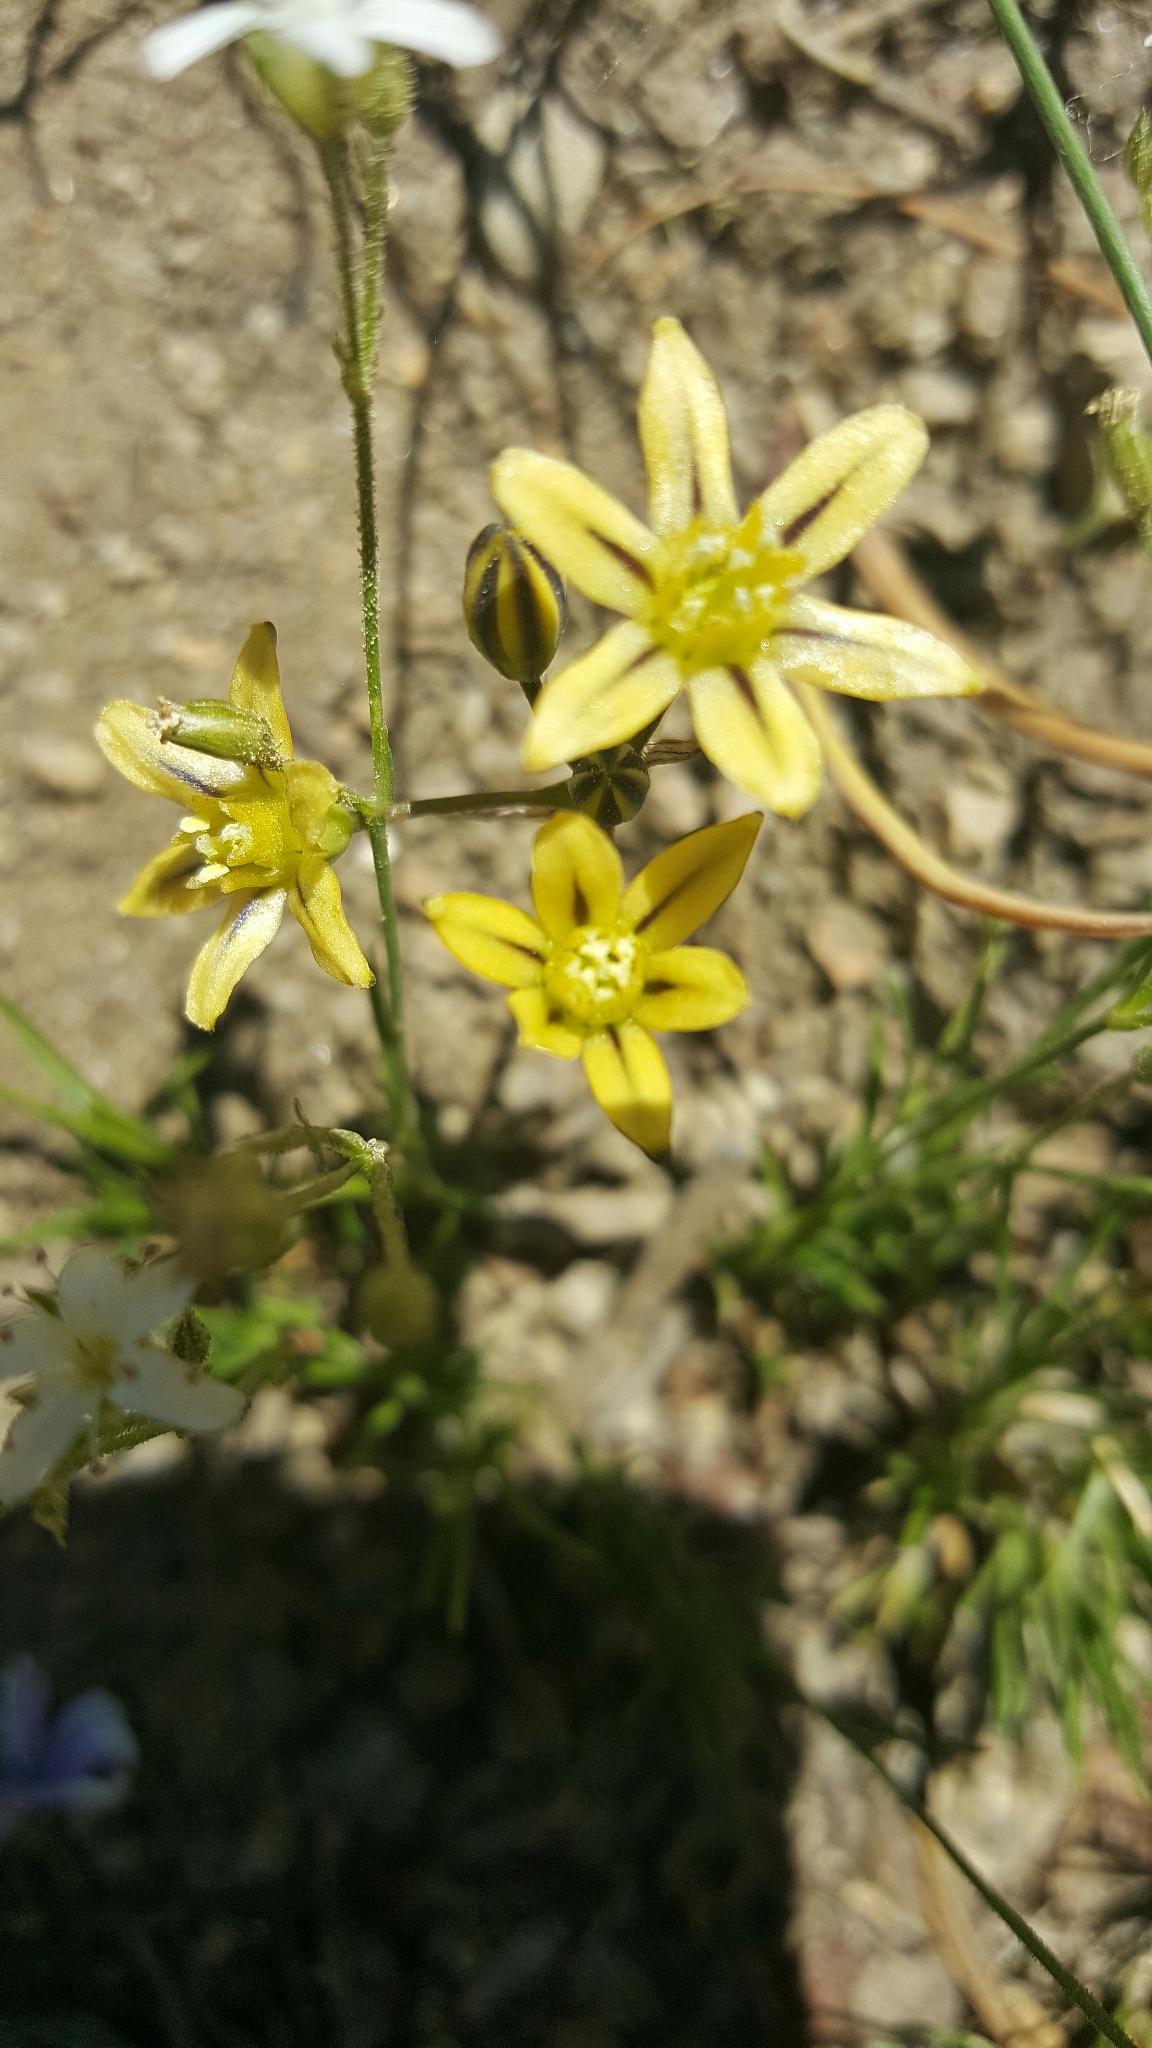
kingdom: Plantae
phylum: Tracheophyta
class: Liliopsida
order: Asparagales
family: Asparagaceae
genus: Triteleia
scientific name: Triteleia ixioides
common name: Yellow-brodiaea
